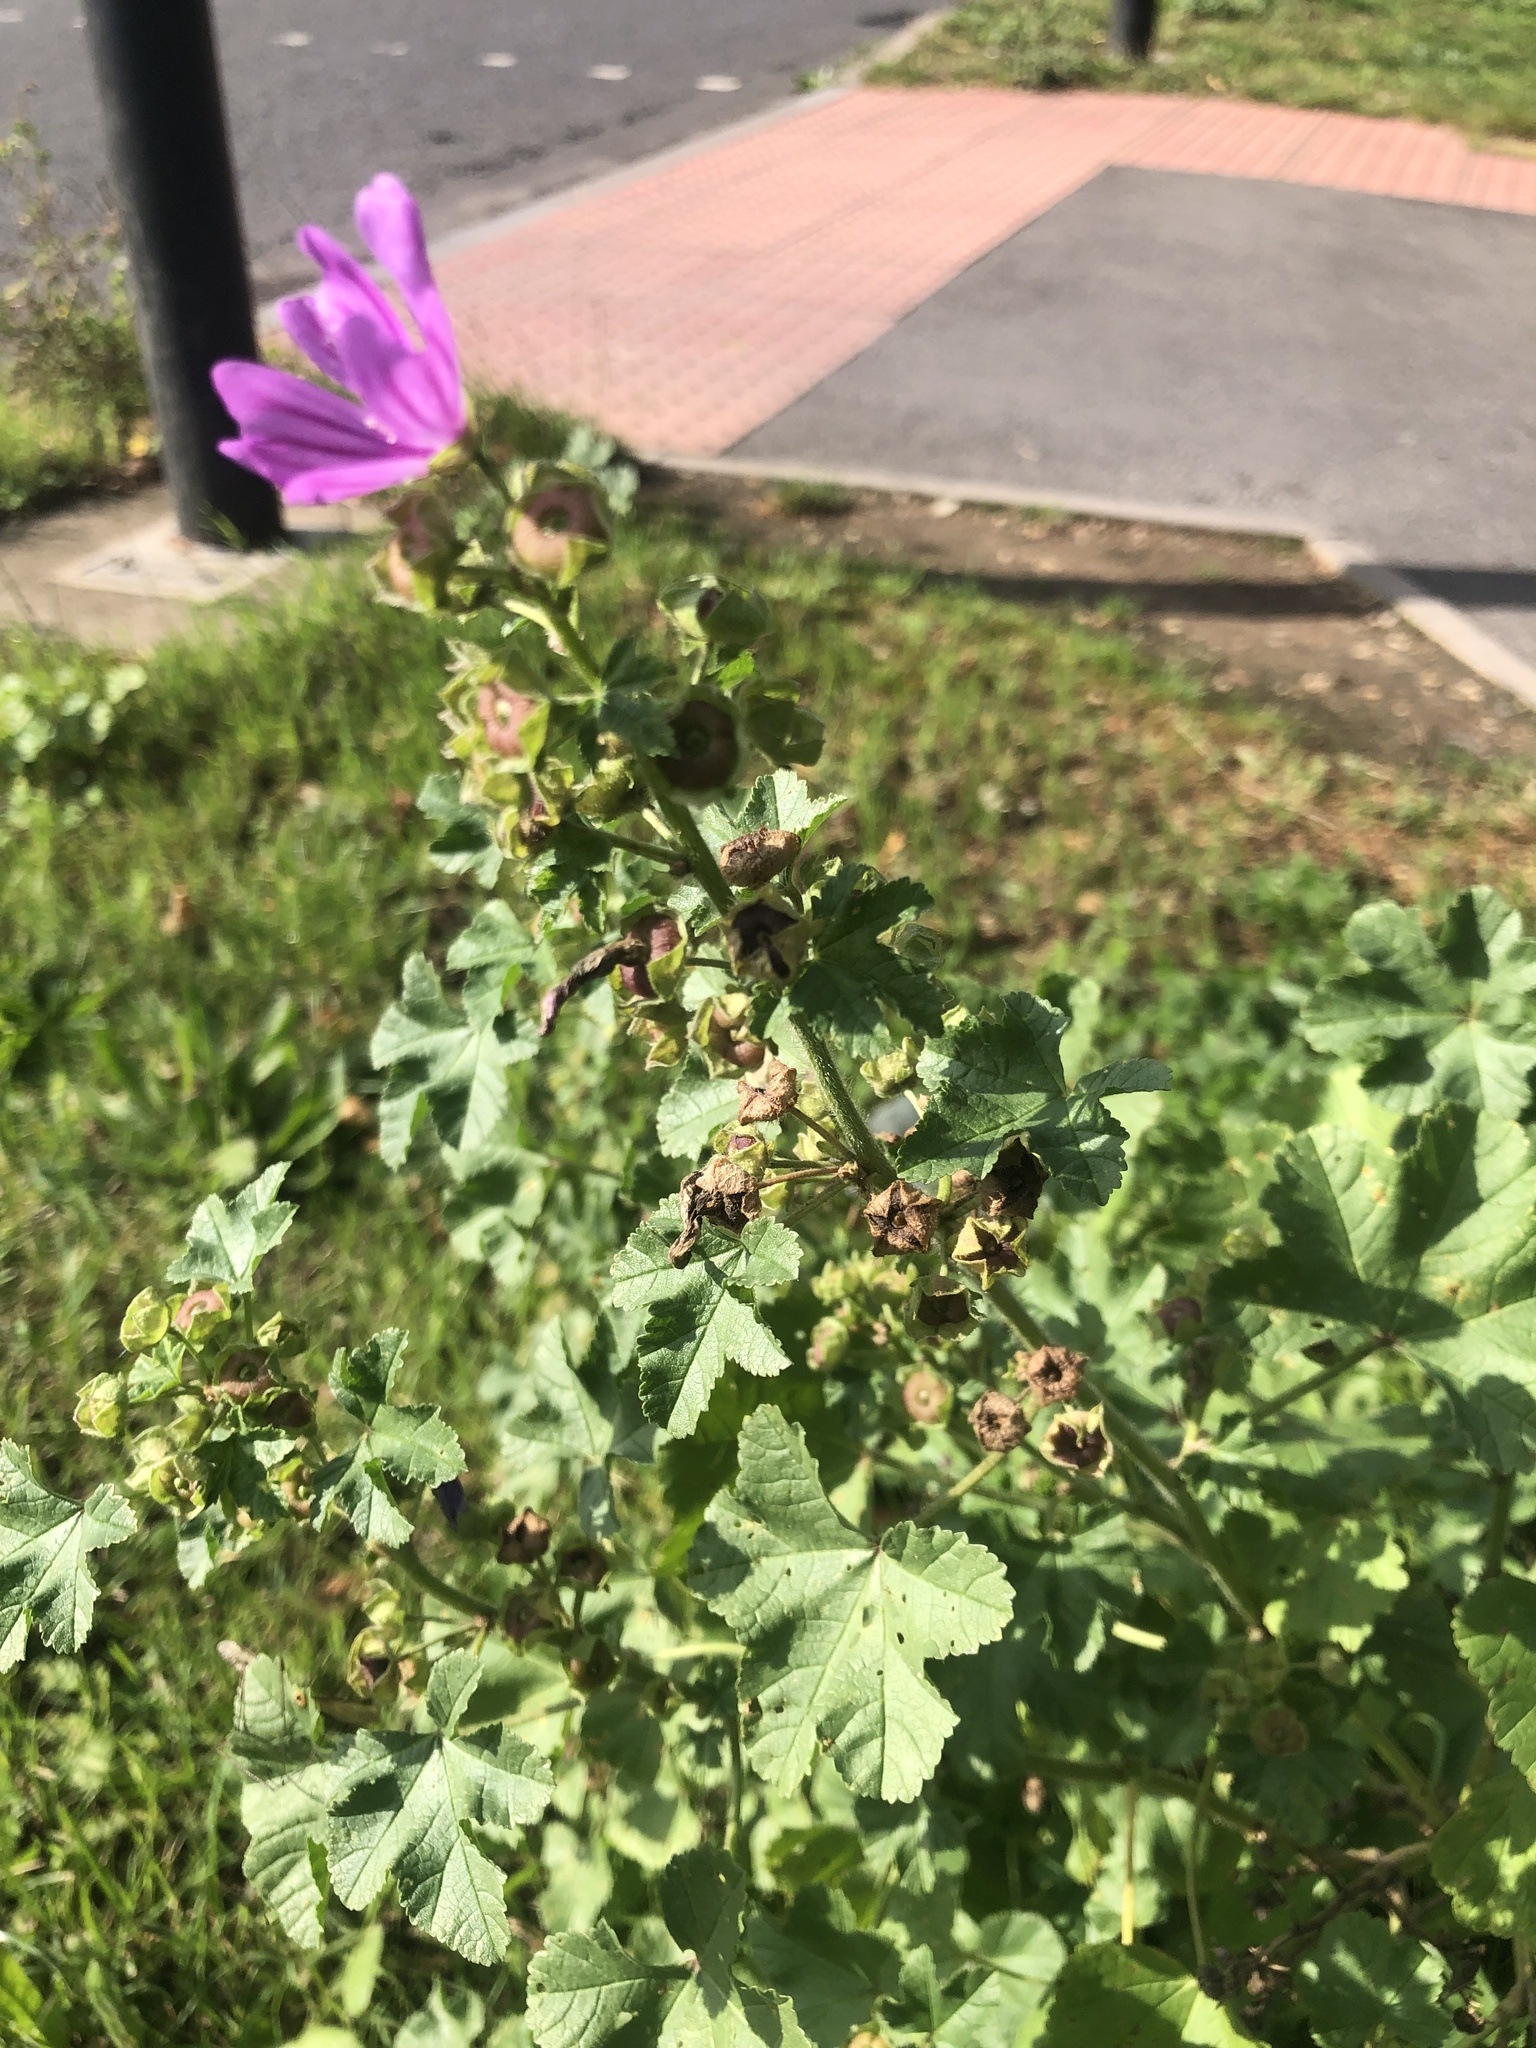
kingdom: Plantae
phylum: Tracheophyta
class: Magnoliopsida
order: Malvales
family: Malvaceae
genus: Malva
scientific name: Malva sylvestris
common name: Common mallow
